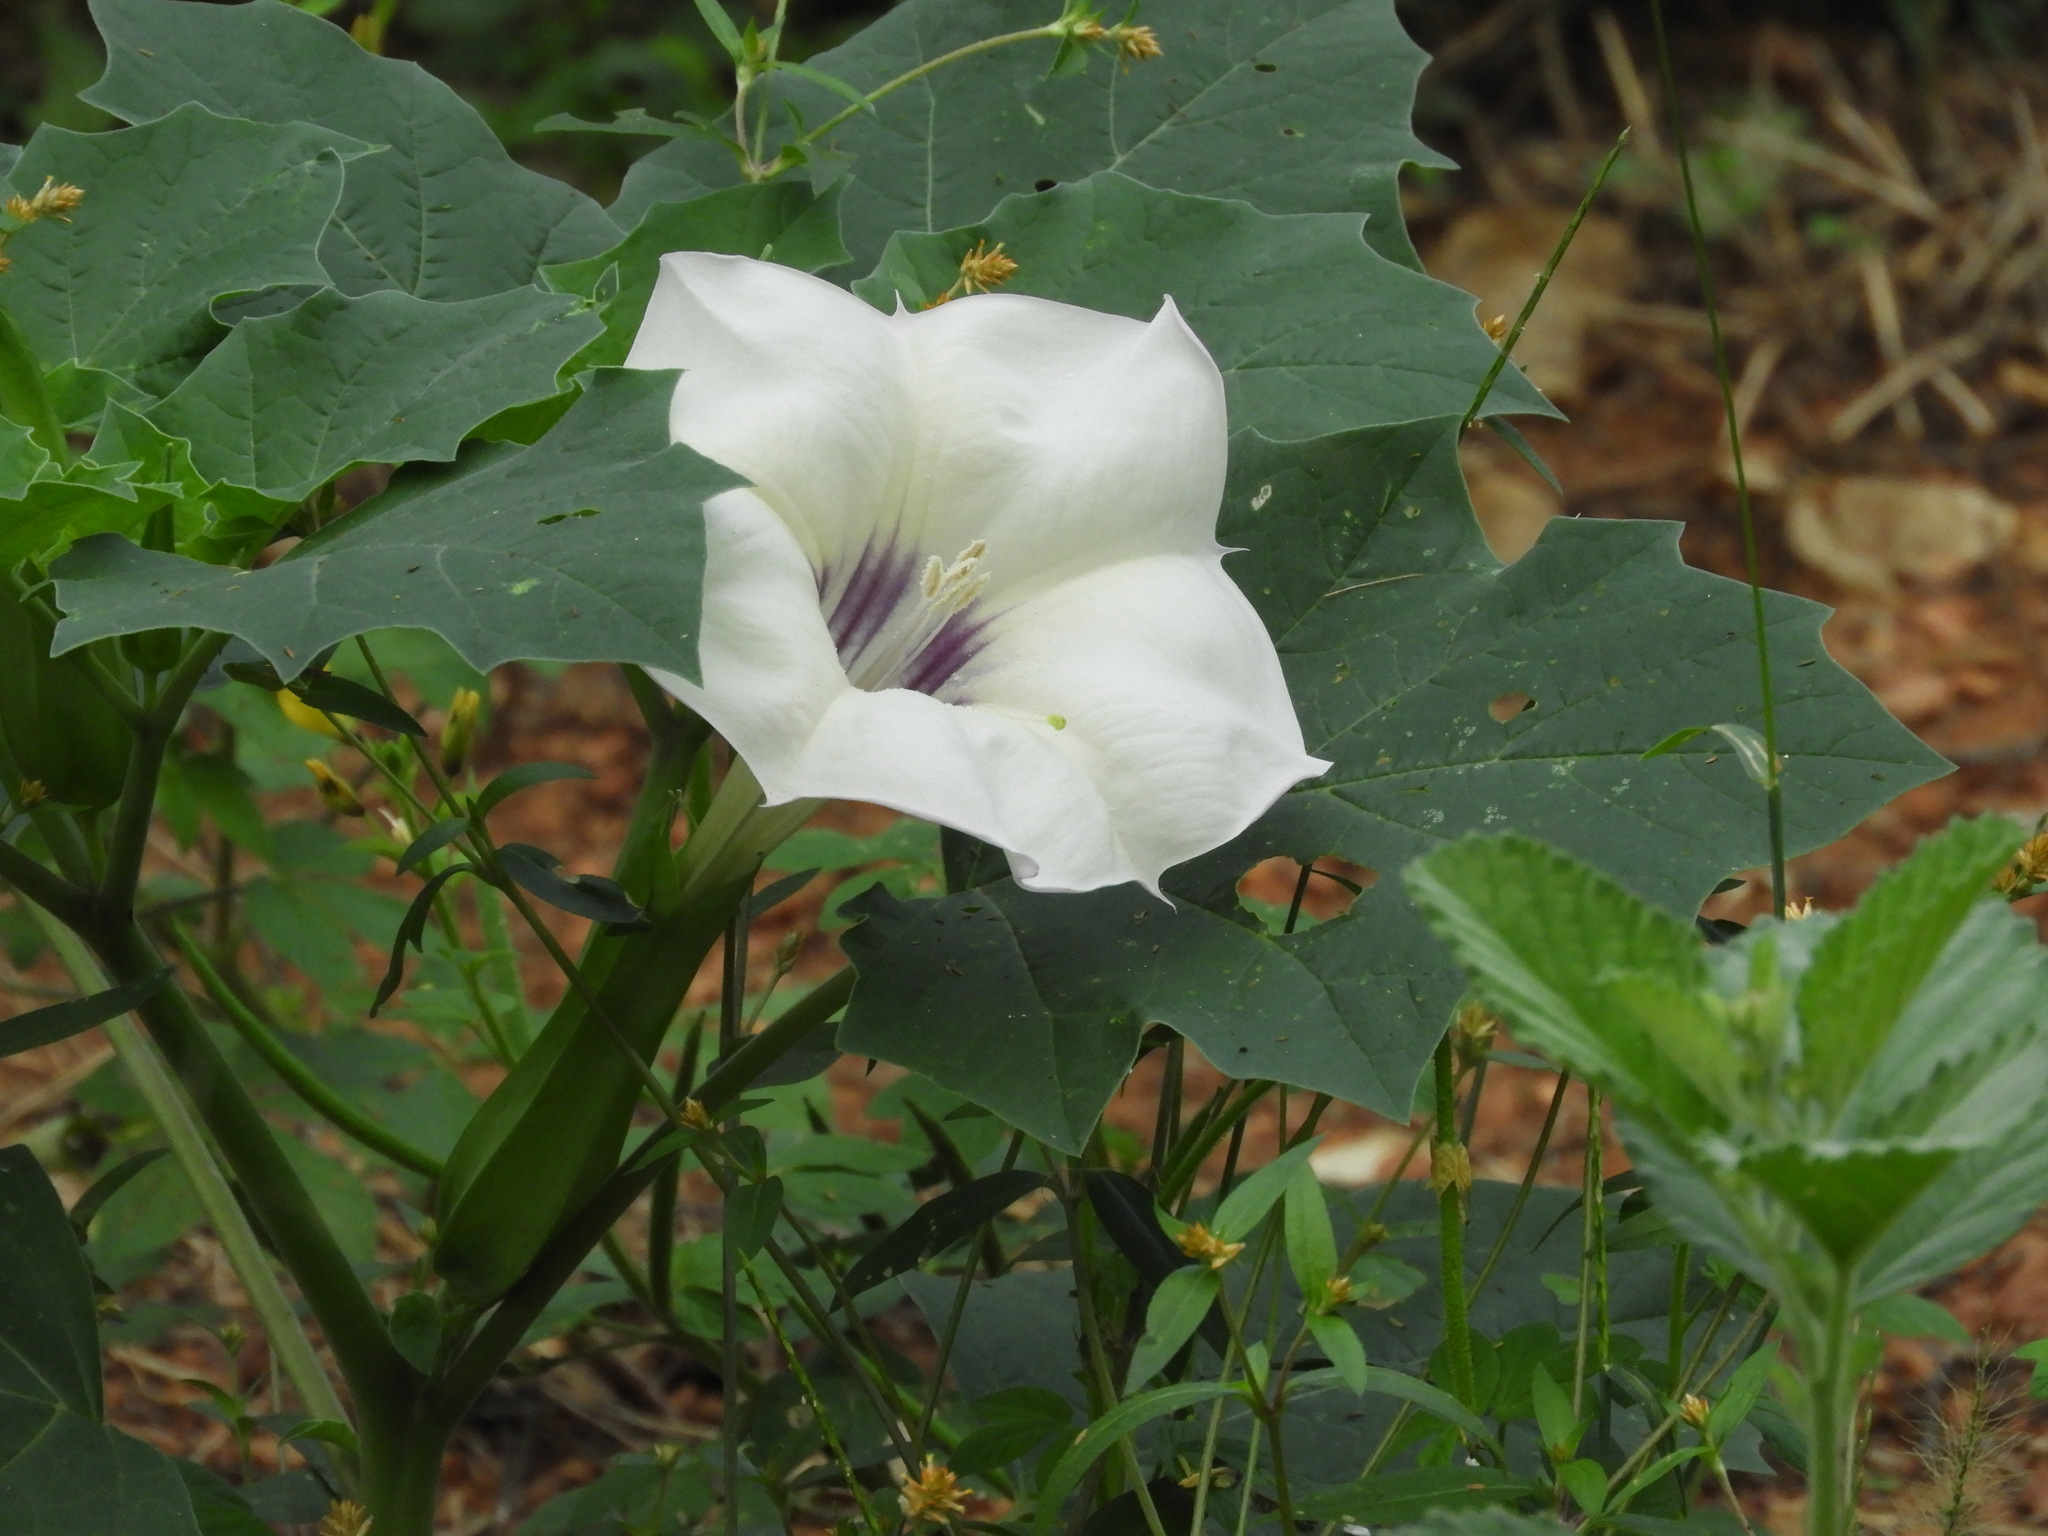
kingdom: Plantae
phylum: Tracheophyta
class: Magnoliopsida
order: Solanales
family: Solanaceae
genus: Datura
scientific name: Datura discolor
